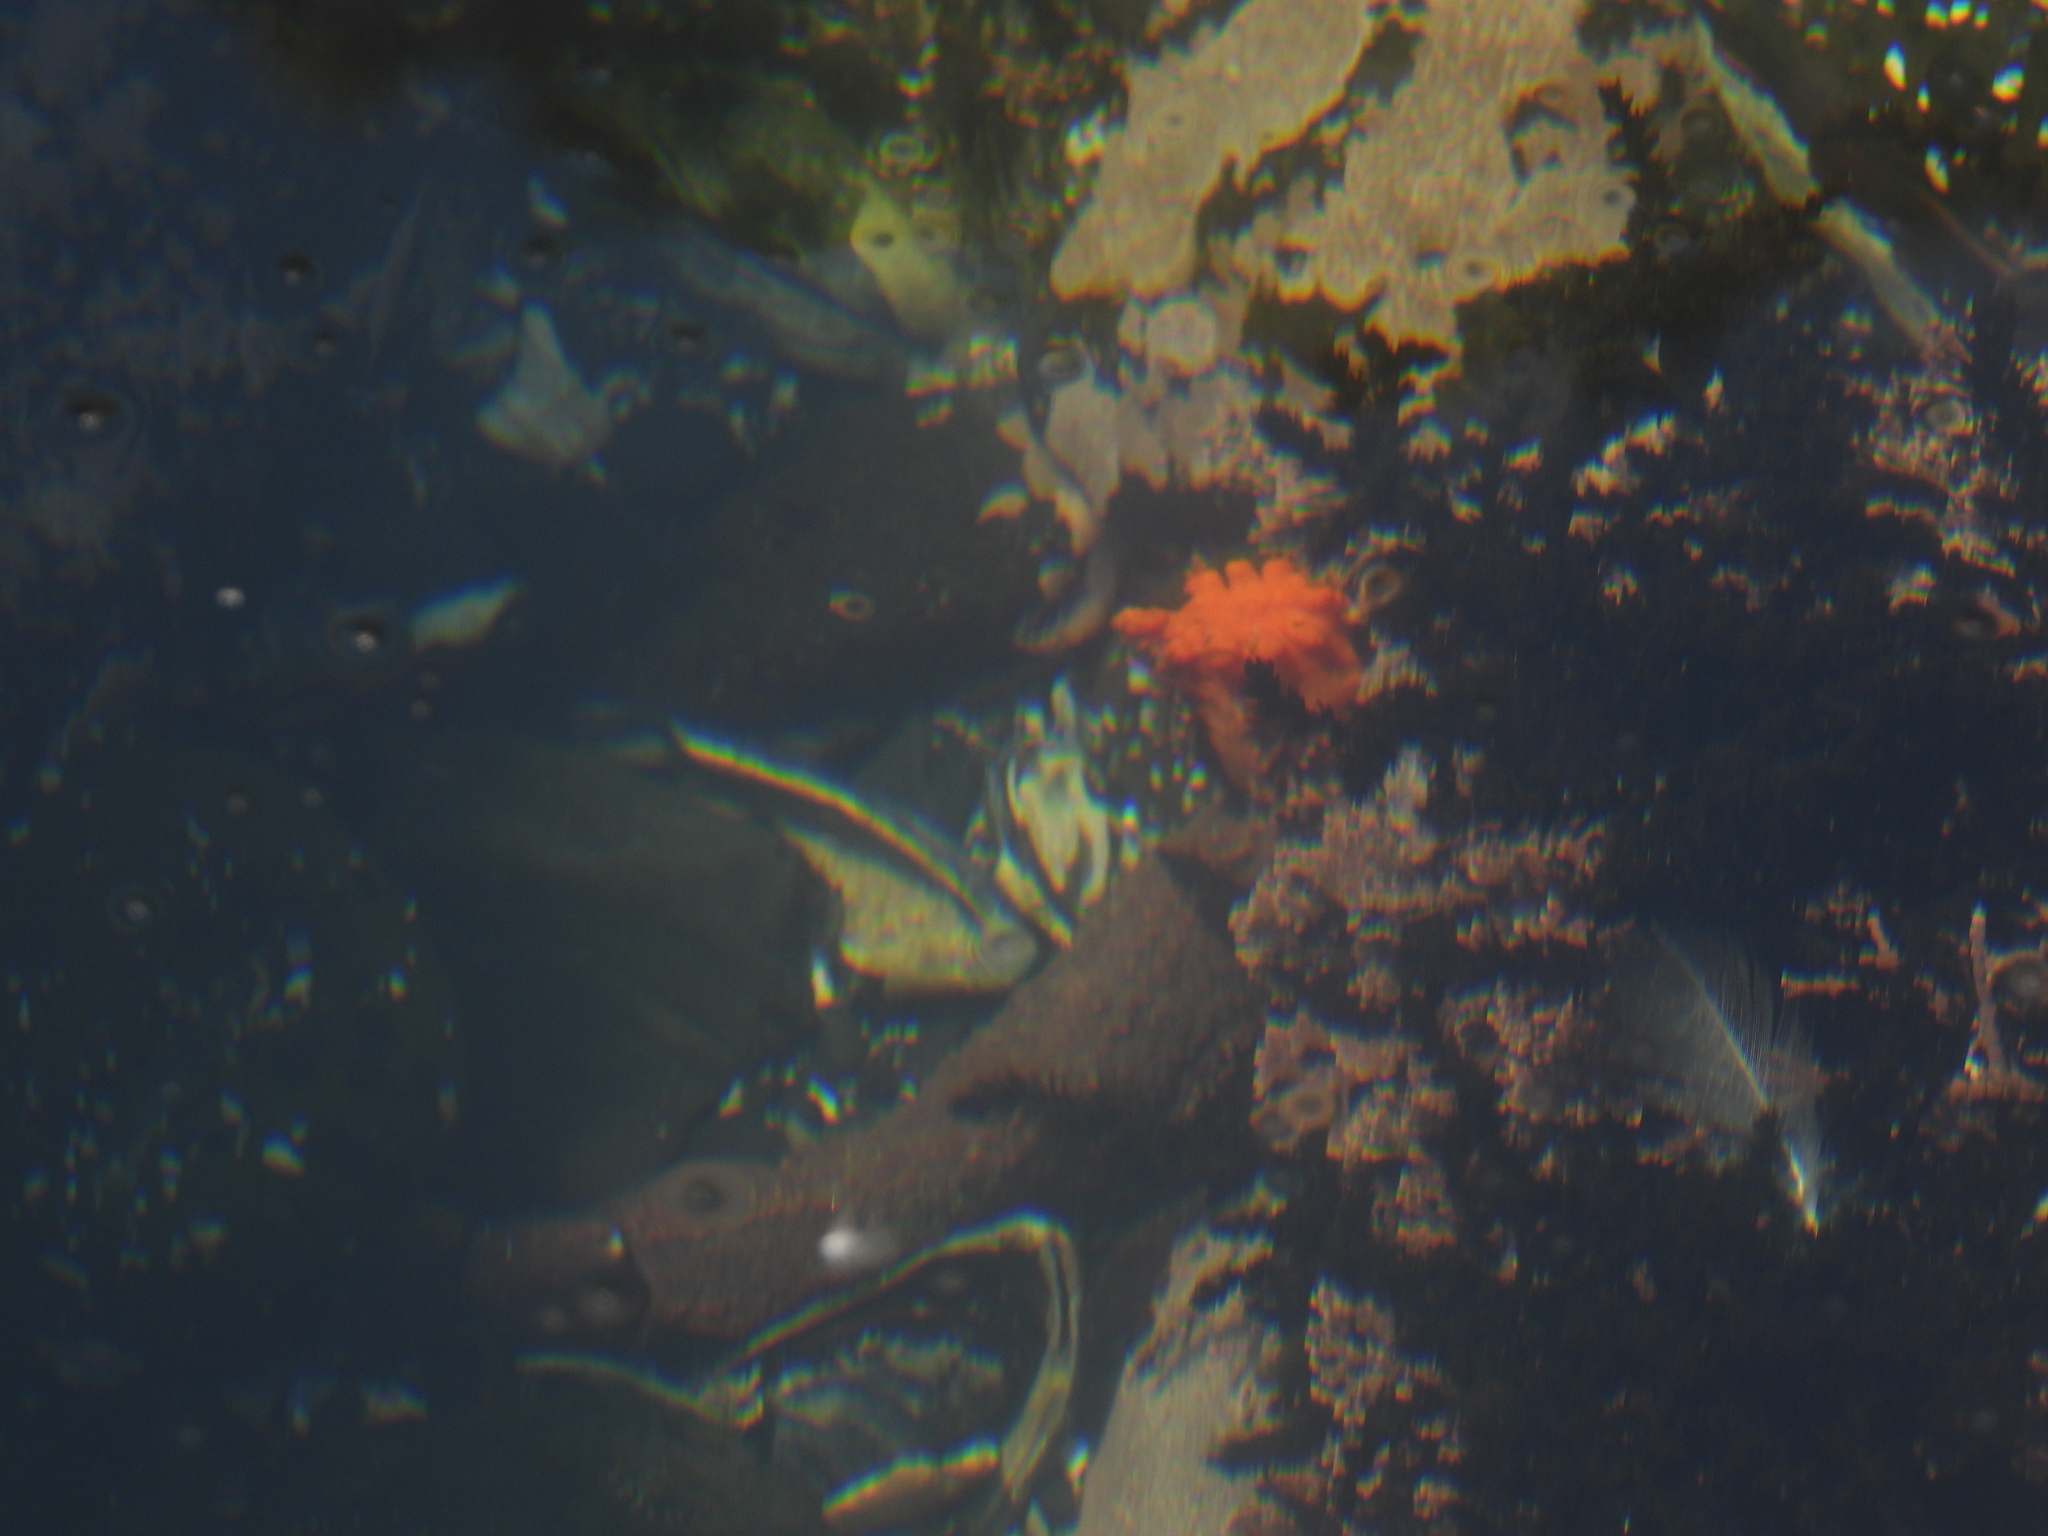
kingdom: Animalia
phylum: Echinodermata
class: Holothuroidea
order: Dendrochirotida
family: Cucumariidae
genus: Cucumaria
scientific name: Cucumaria miniata
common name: Orange sea cucumber
